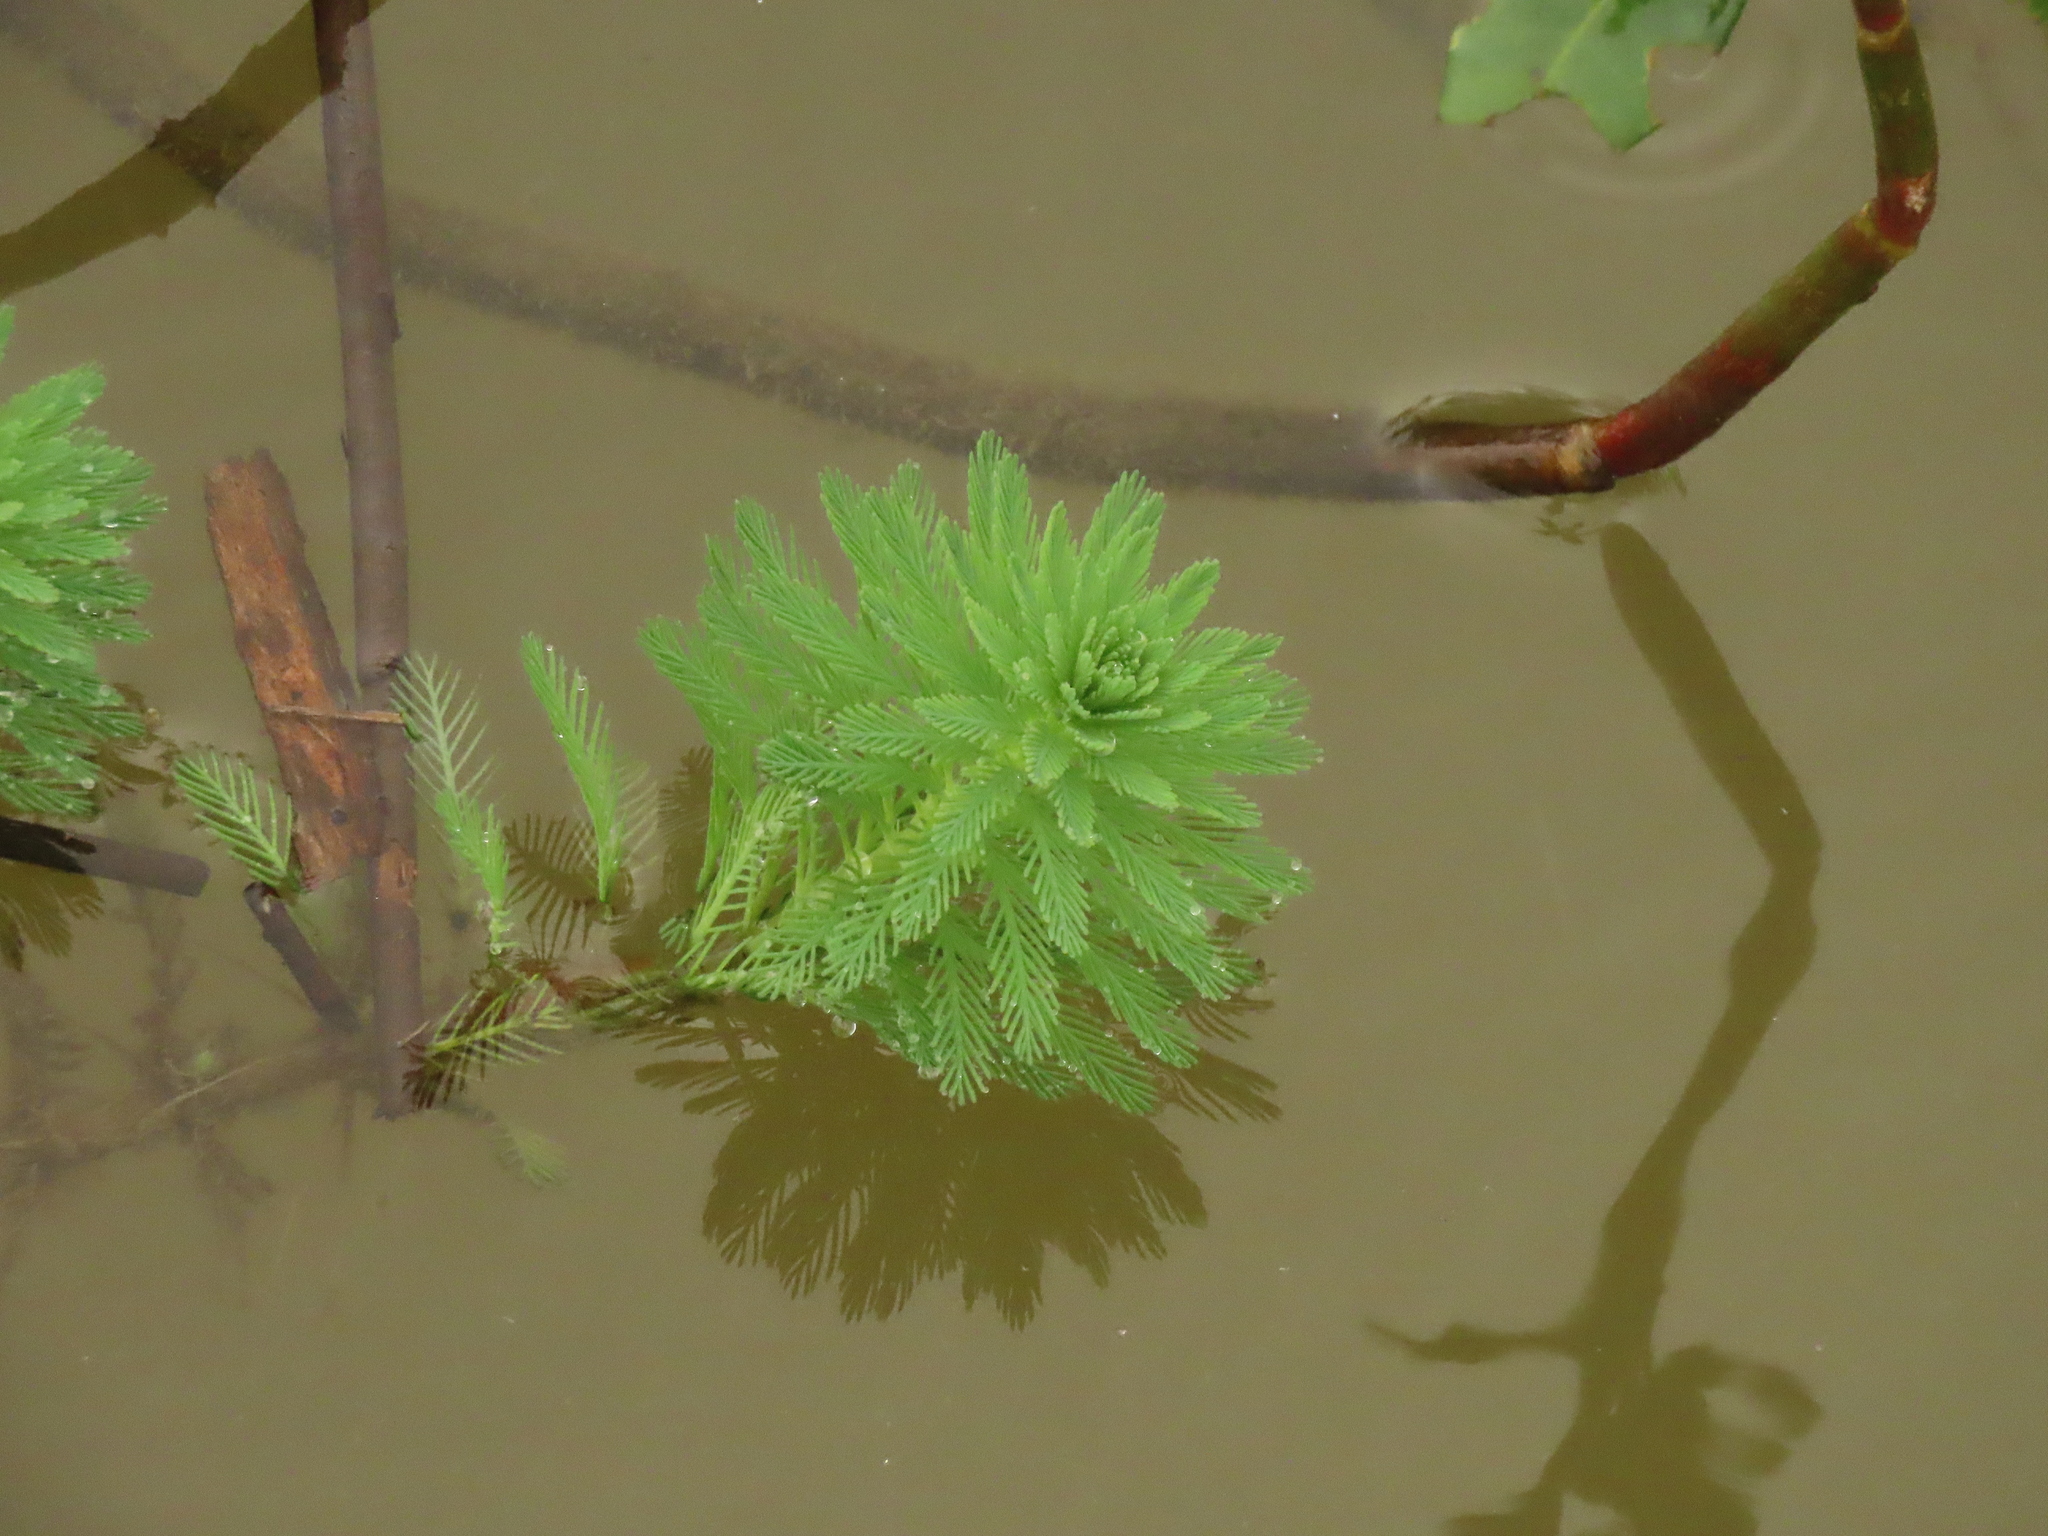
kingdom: Plantae
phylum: Tracheophyta
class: Magnoliopsida
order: Saxifragales
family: Haloragaceae
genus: Myriophyllum
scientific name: Myriophyllum aquaticum
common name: Parrot's feather
